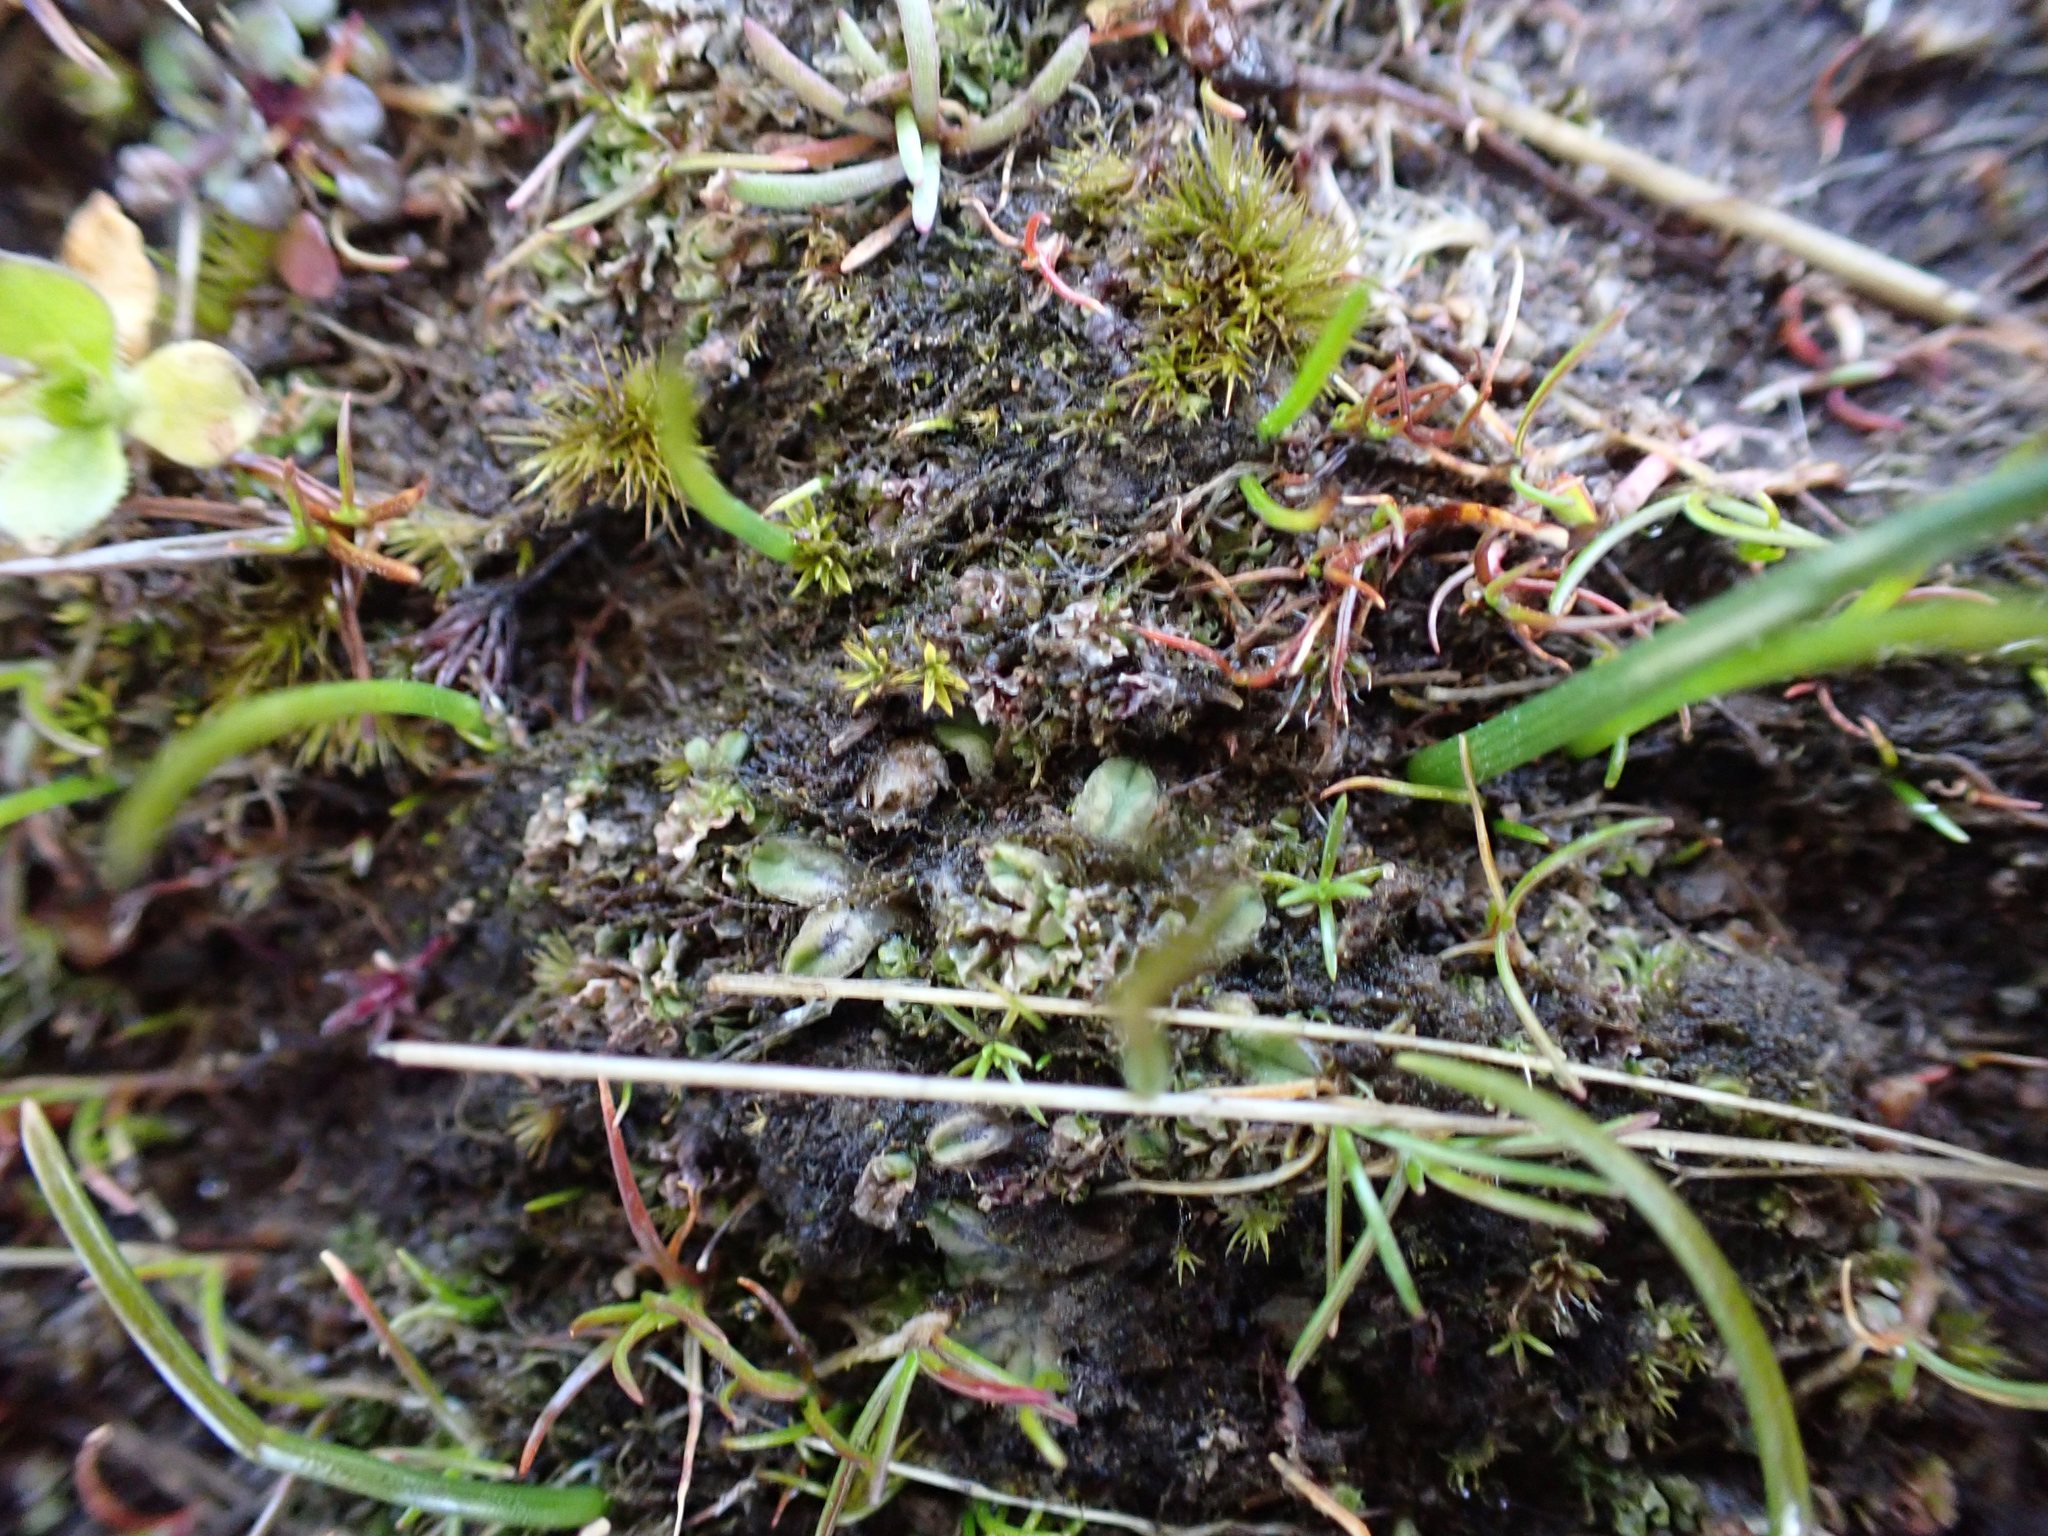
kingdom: Plantae
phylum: Marchantiophyta
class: Marchantiopsida
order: Marchantiales
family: Ricciaceae
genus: Riccia
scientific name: Riccia sorocarpa
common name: Common crystalwort
